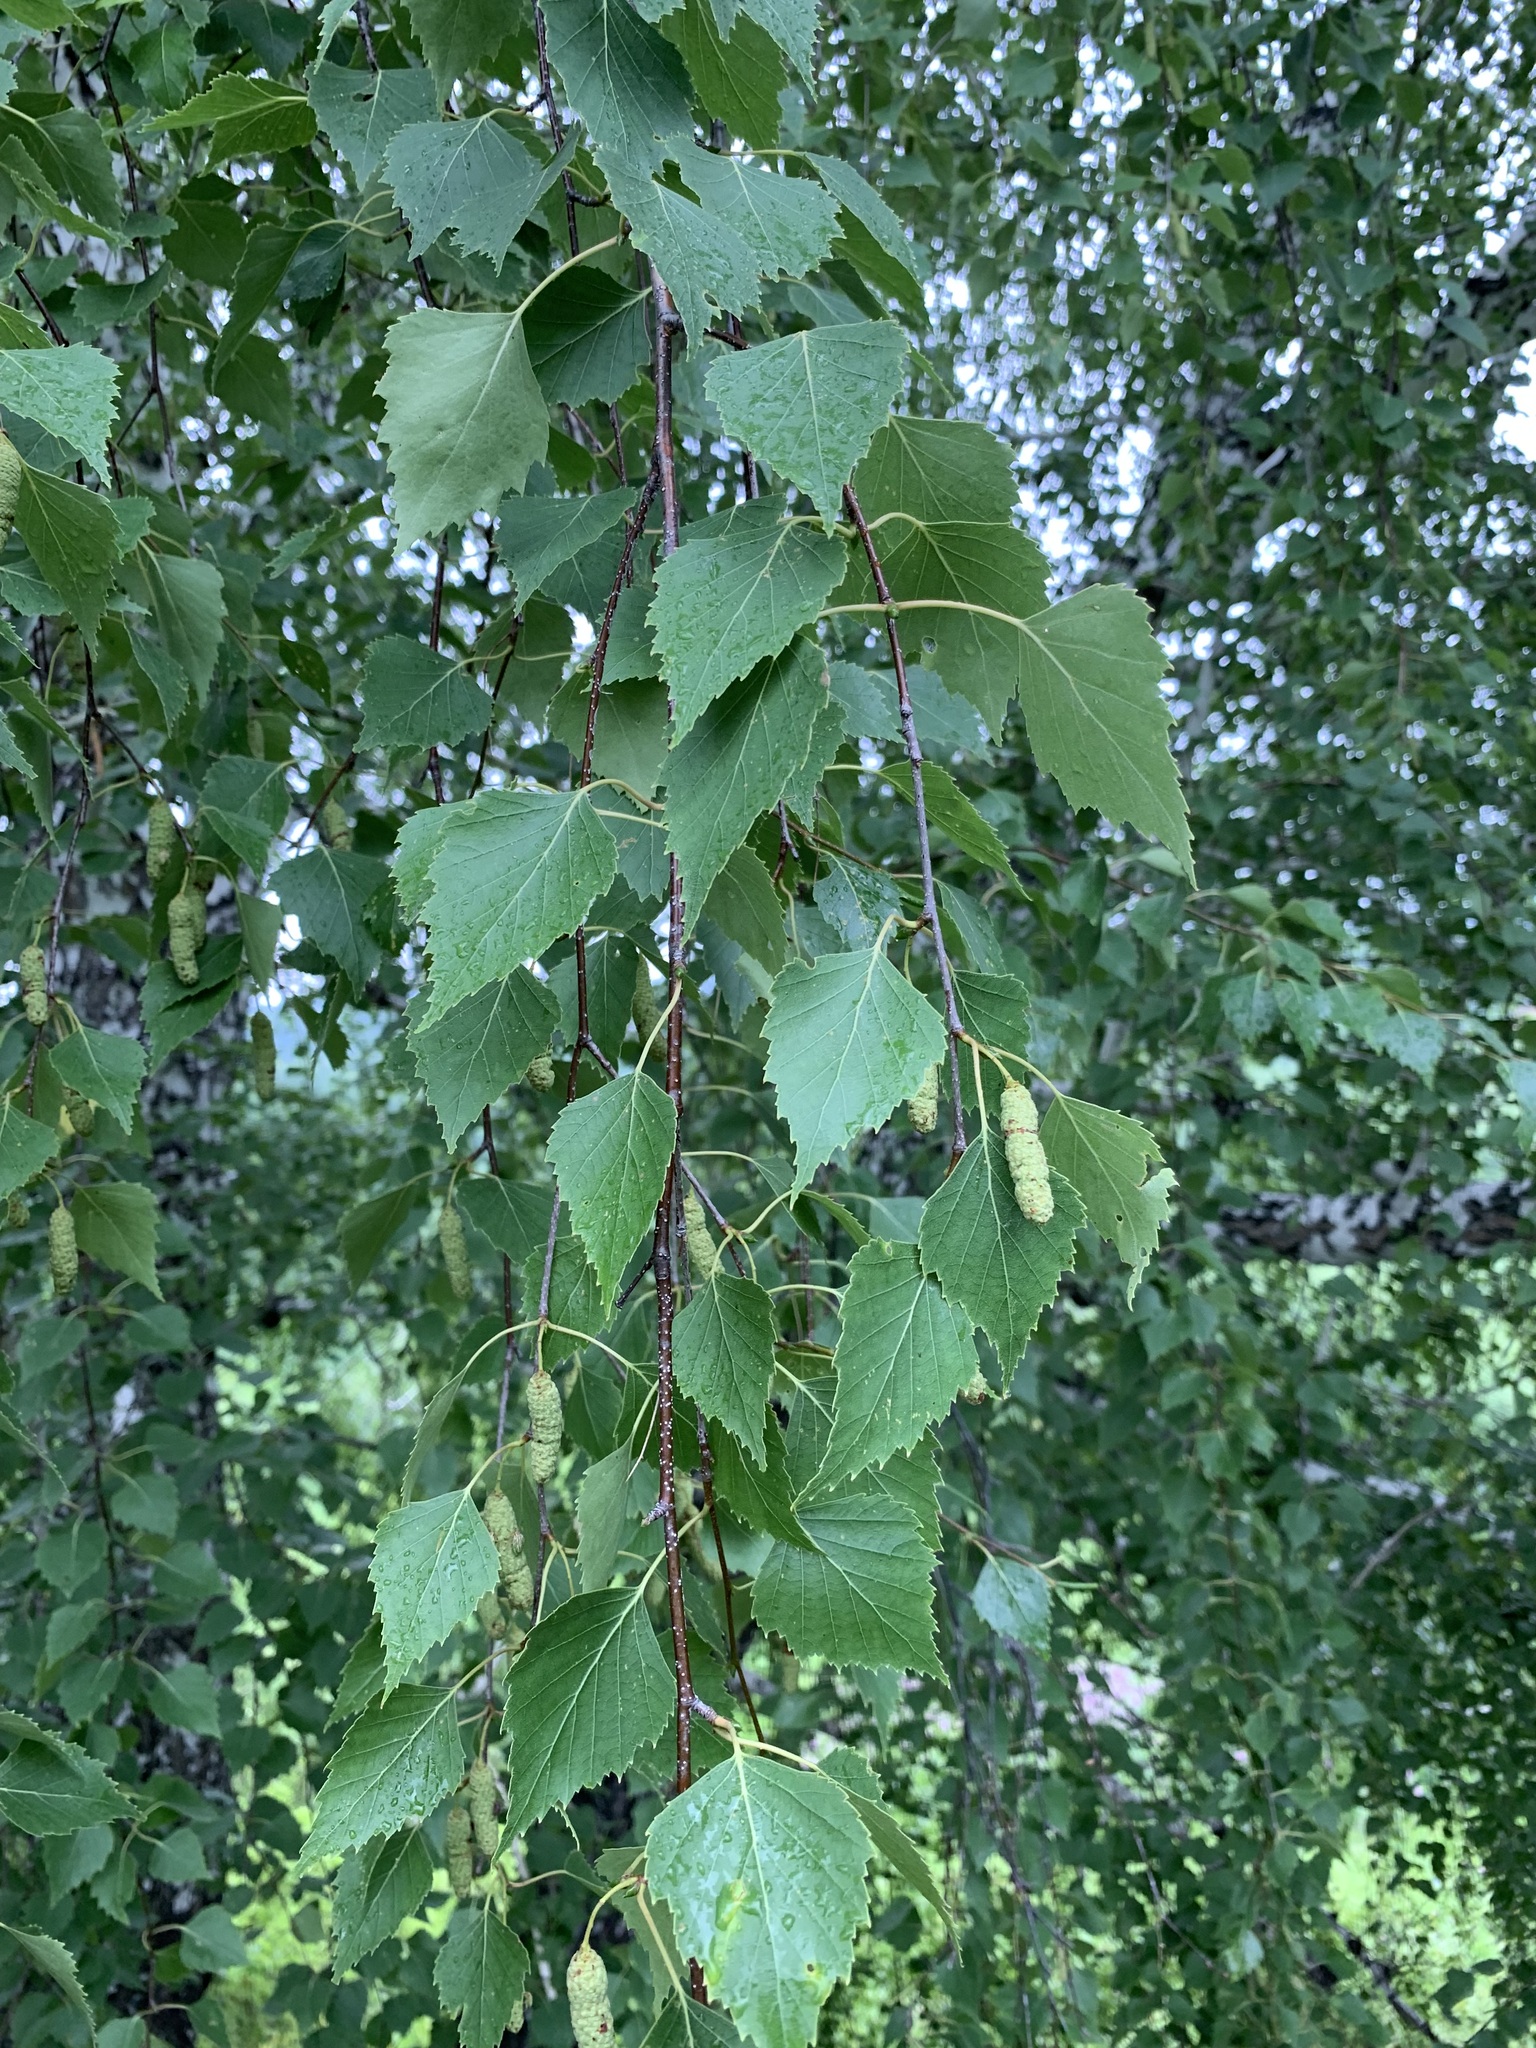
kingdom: Plantae
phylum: Tracheophyta
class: Magnoliopsida
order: Fagales
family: Betulaceae
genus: Betula
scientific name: Betula pendula
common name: Silver birch
